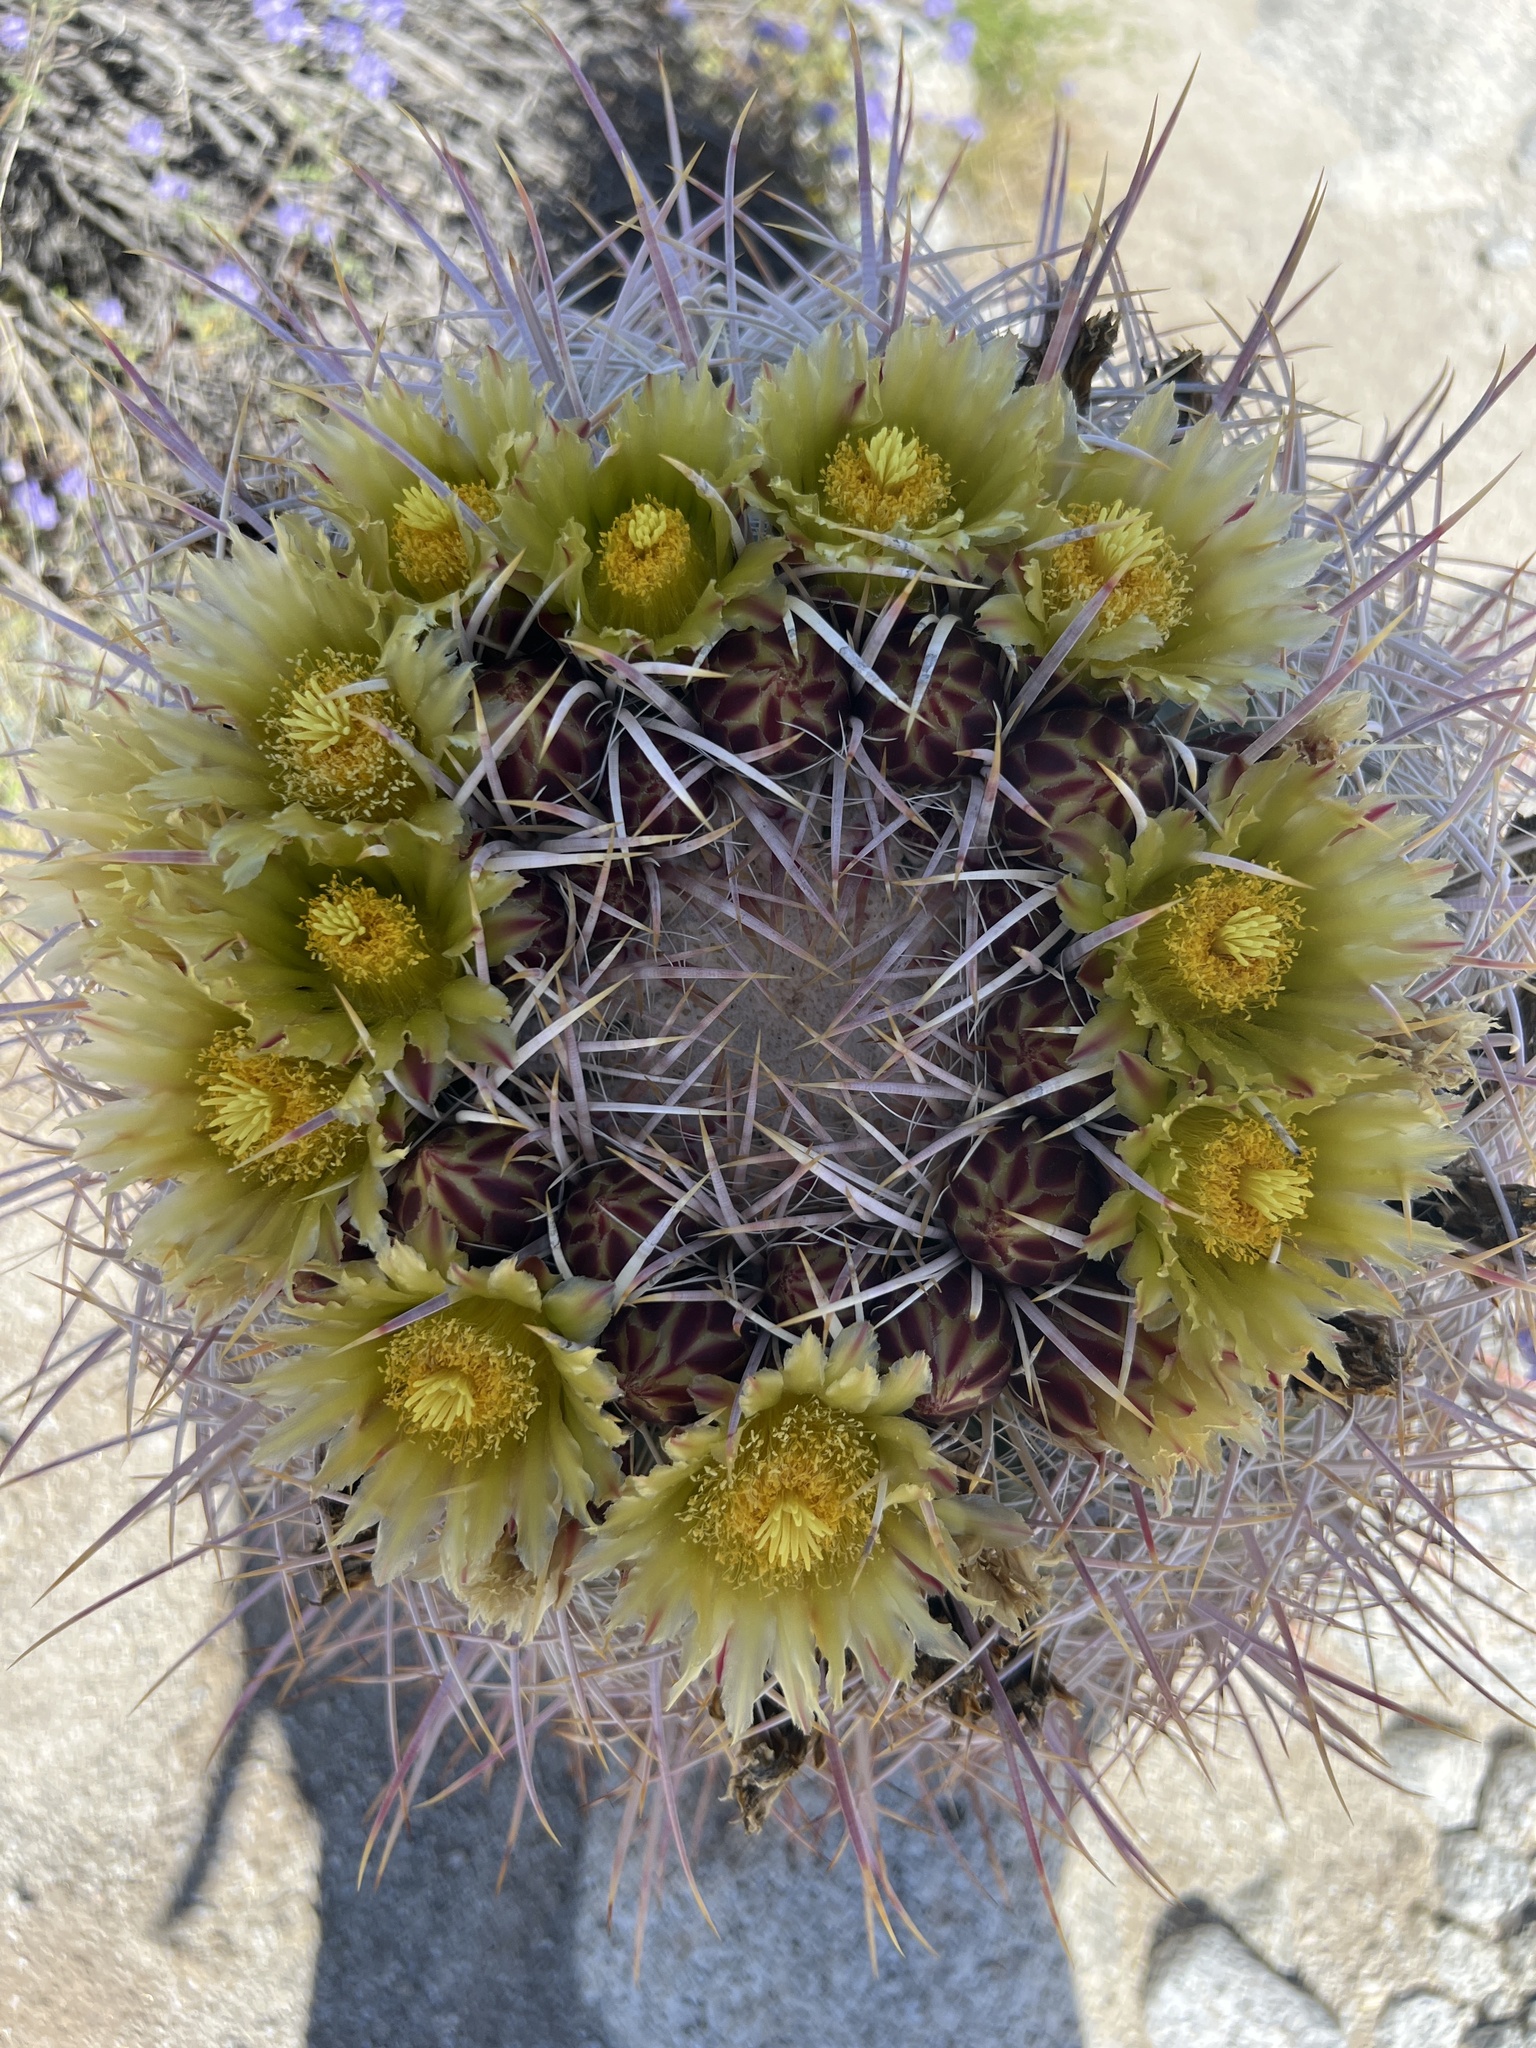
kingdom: Plantae
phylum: Tracheophyta
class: Magnoliopsida
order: Caryophyllales
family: Cactaceae
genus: Ferocactus
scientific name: Ferocactus cylindraceus
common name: California barrel cactus
